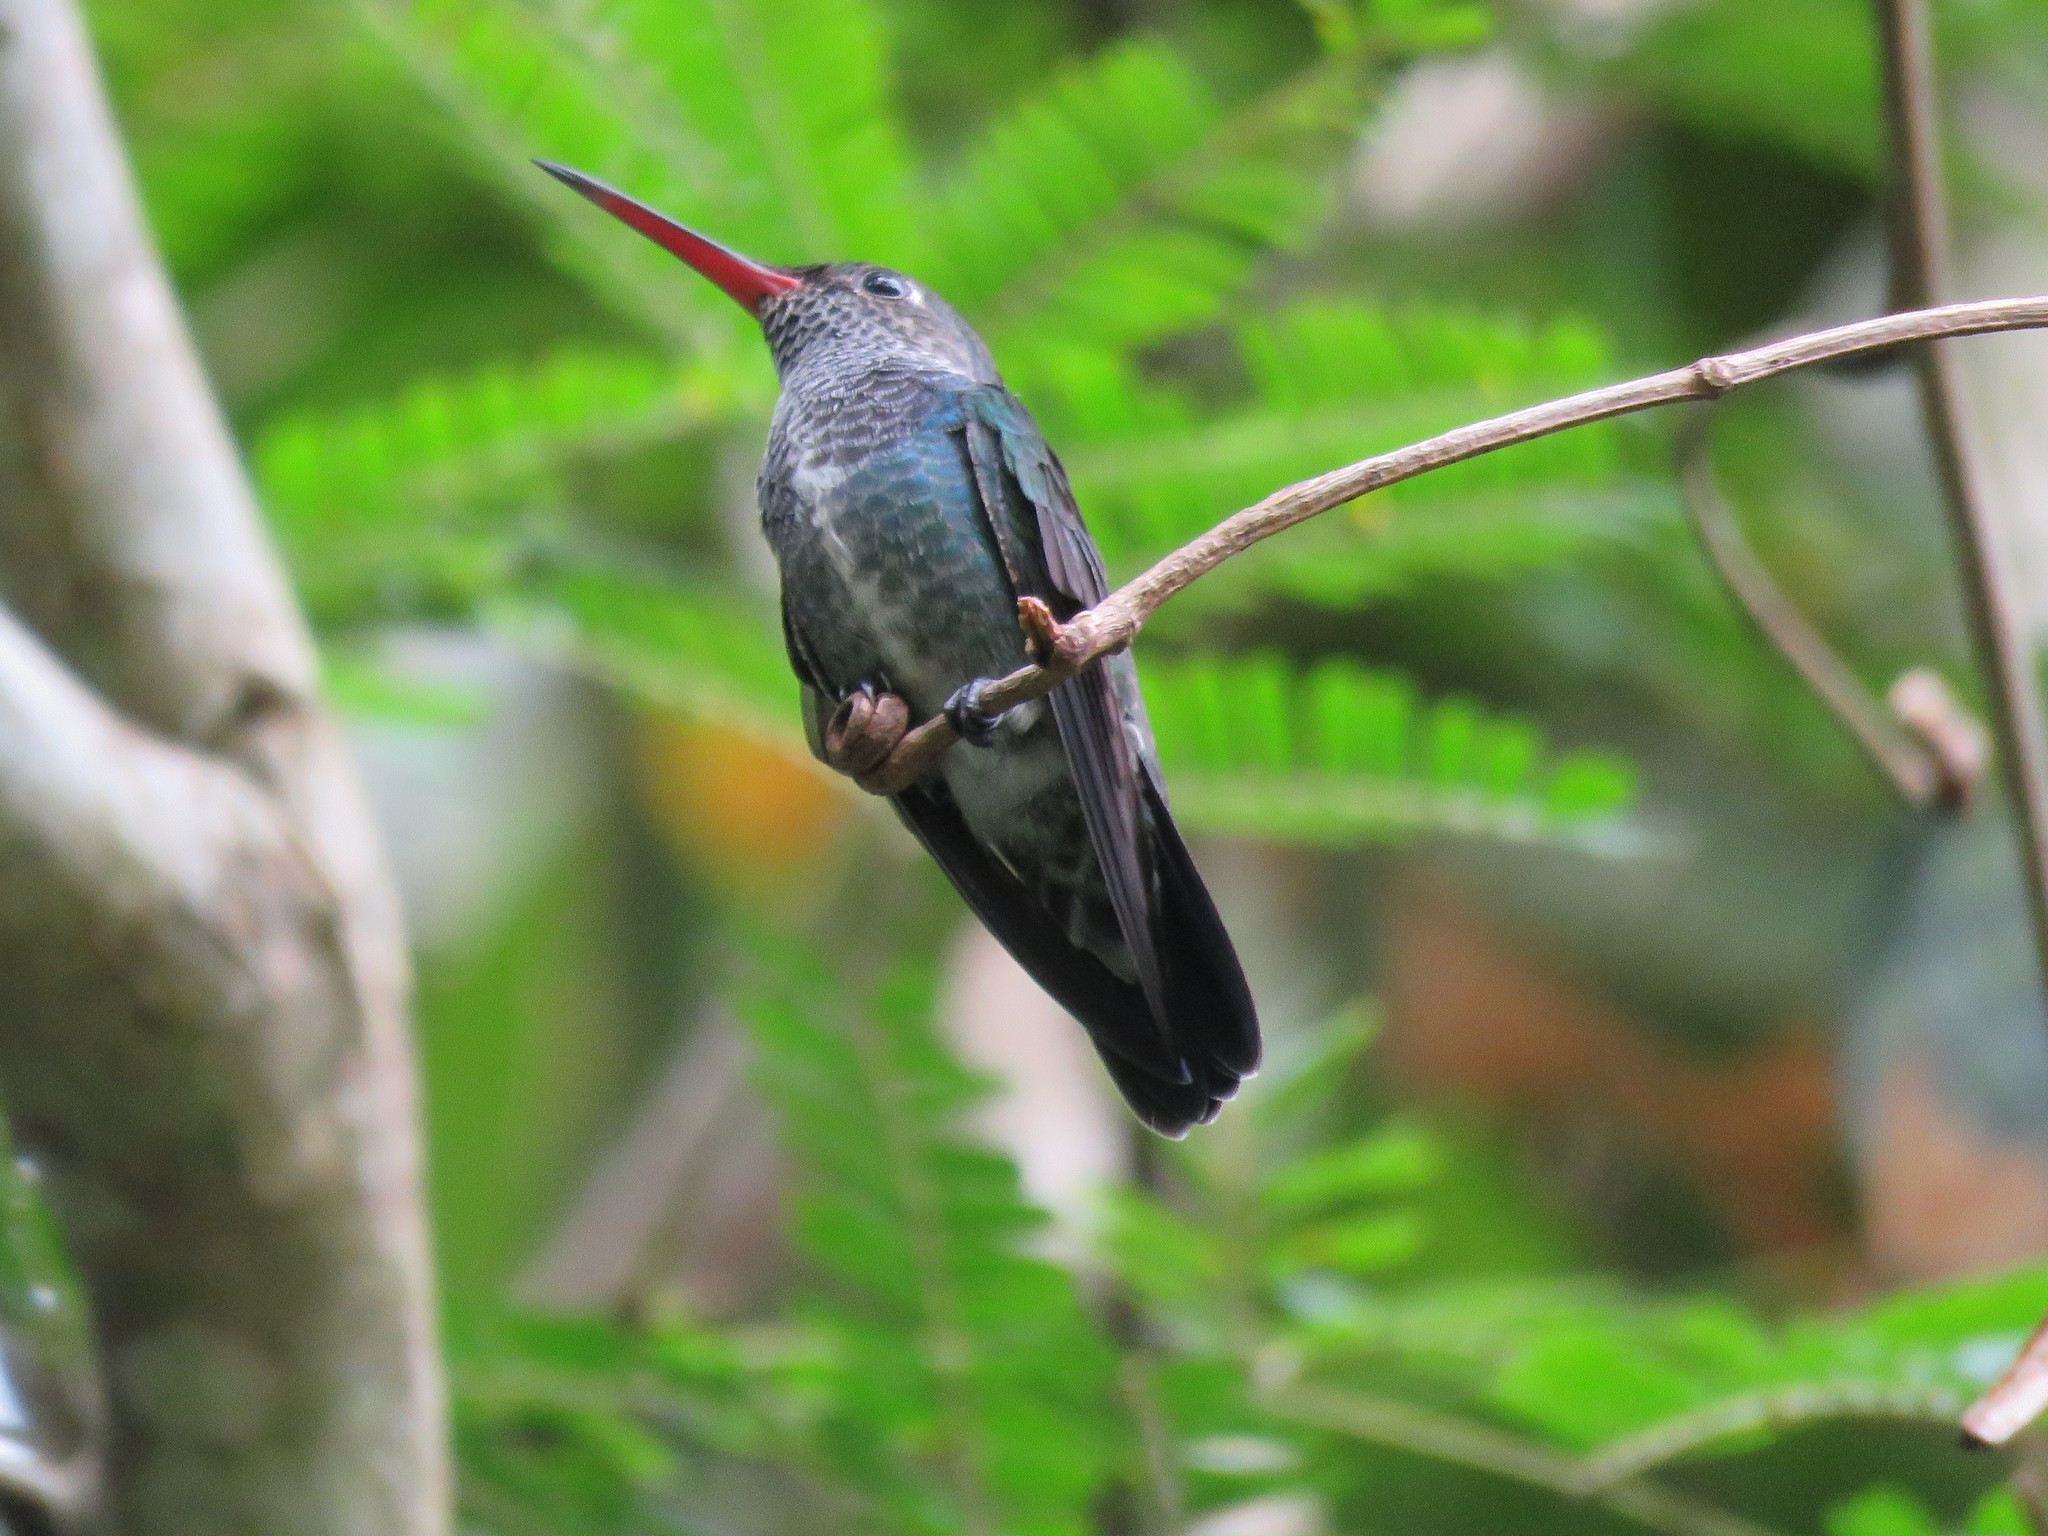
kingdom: Animalia
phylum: Chordata
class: Aves
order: Apodiformes
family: Trochilidae
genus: Chionomesa
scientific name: Chionomesa lactea
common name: Sapphire-spangled emerald
